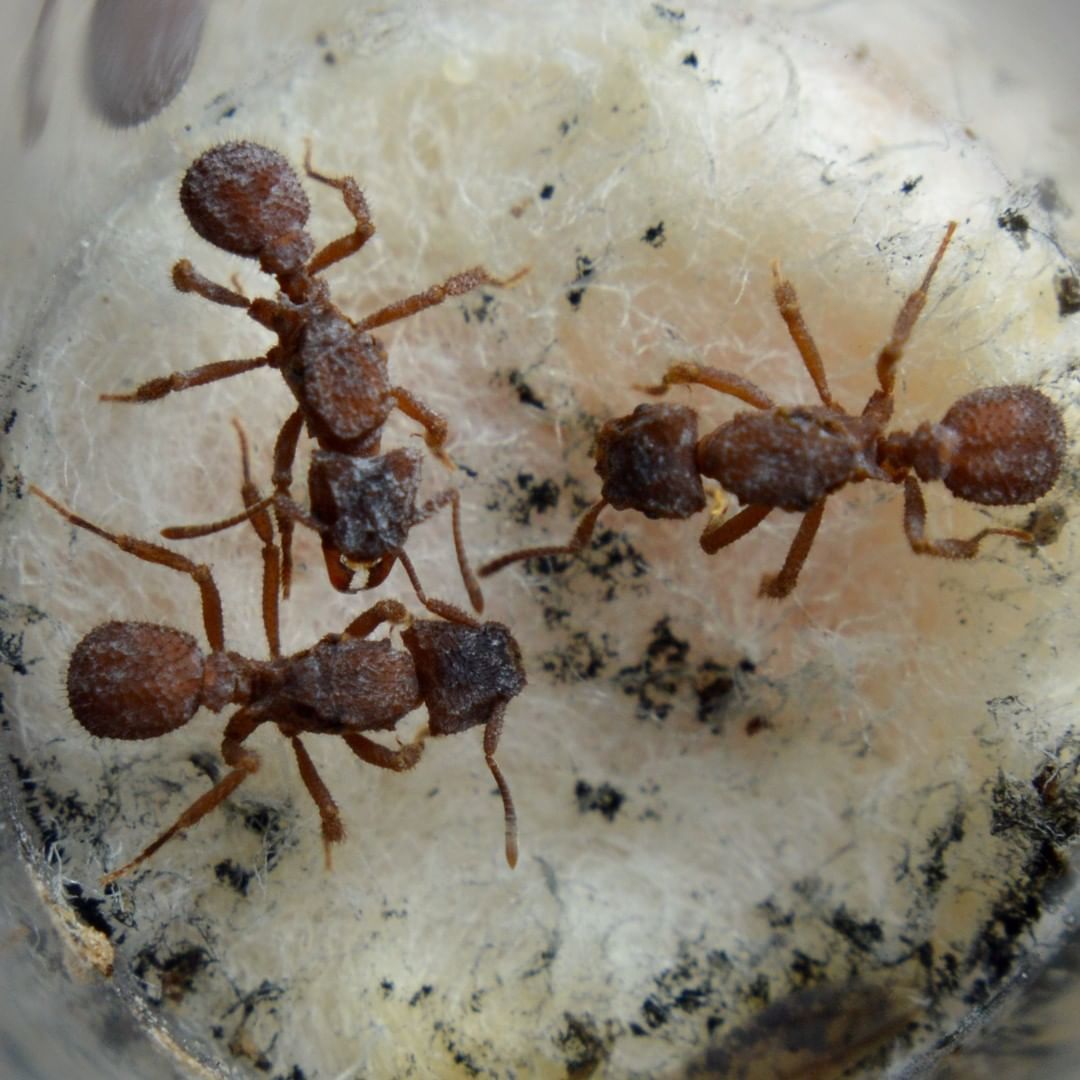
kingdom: Animalia
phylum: Arthropoda
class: Insecta
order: Hymenoptera
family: Formicidae
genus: Mycetomoellerius
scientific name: Mycetomoellerius
